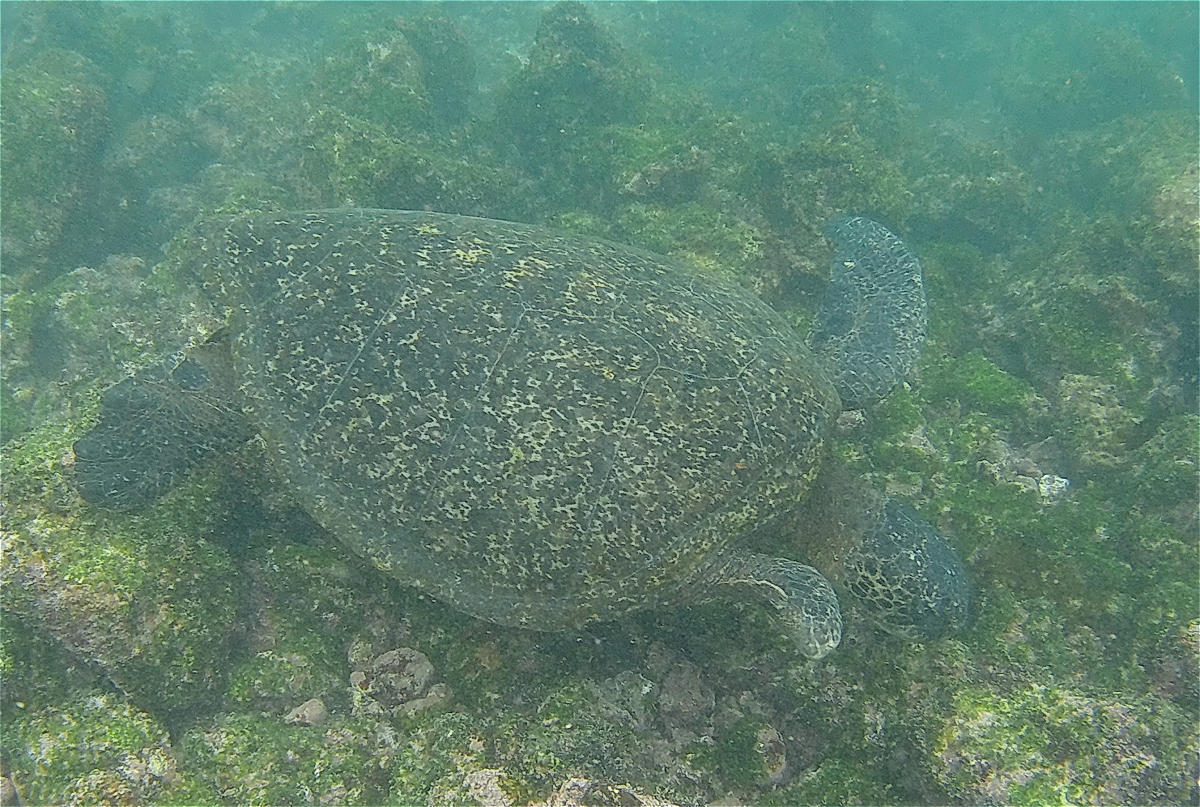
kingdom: Animalia
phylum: Chordata
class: Testudines
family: Cheloniidae
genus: Chelonia
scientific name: Chelonia mydas
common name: Green turtle
